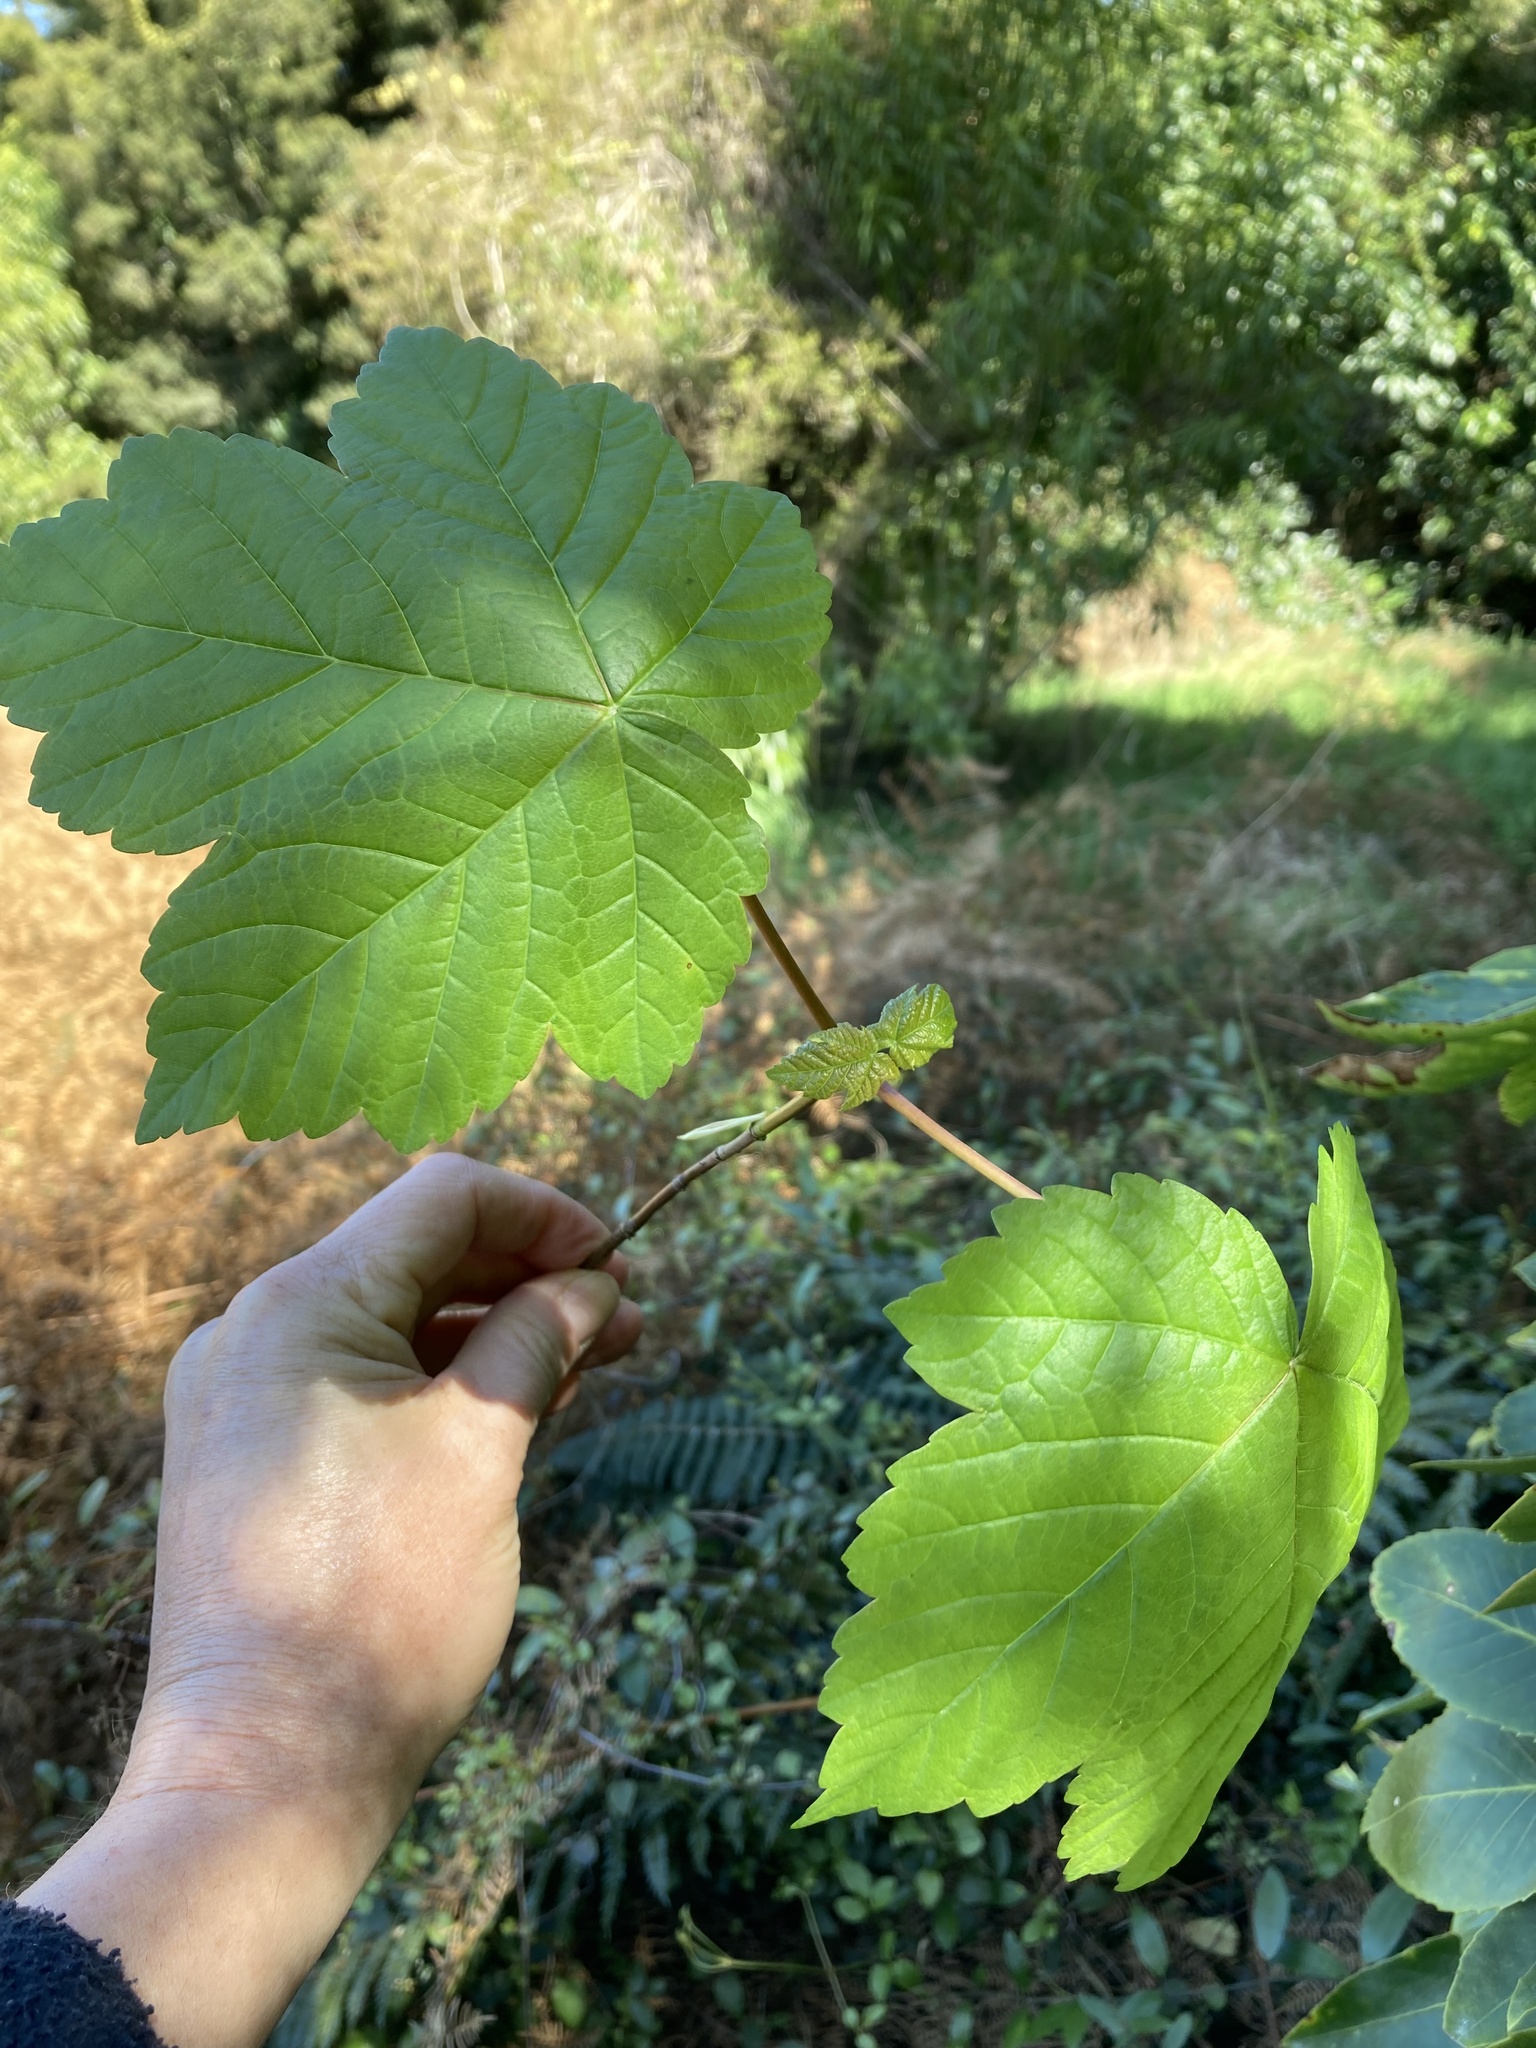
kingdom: Plantae
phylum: Tracheophyta
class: Magnoliopsida
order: Sapindales
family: Sapindaceae
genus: Acer
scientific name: Acer pseudoplatanus
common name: Sycamore
